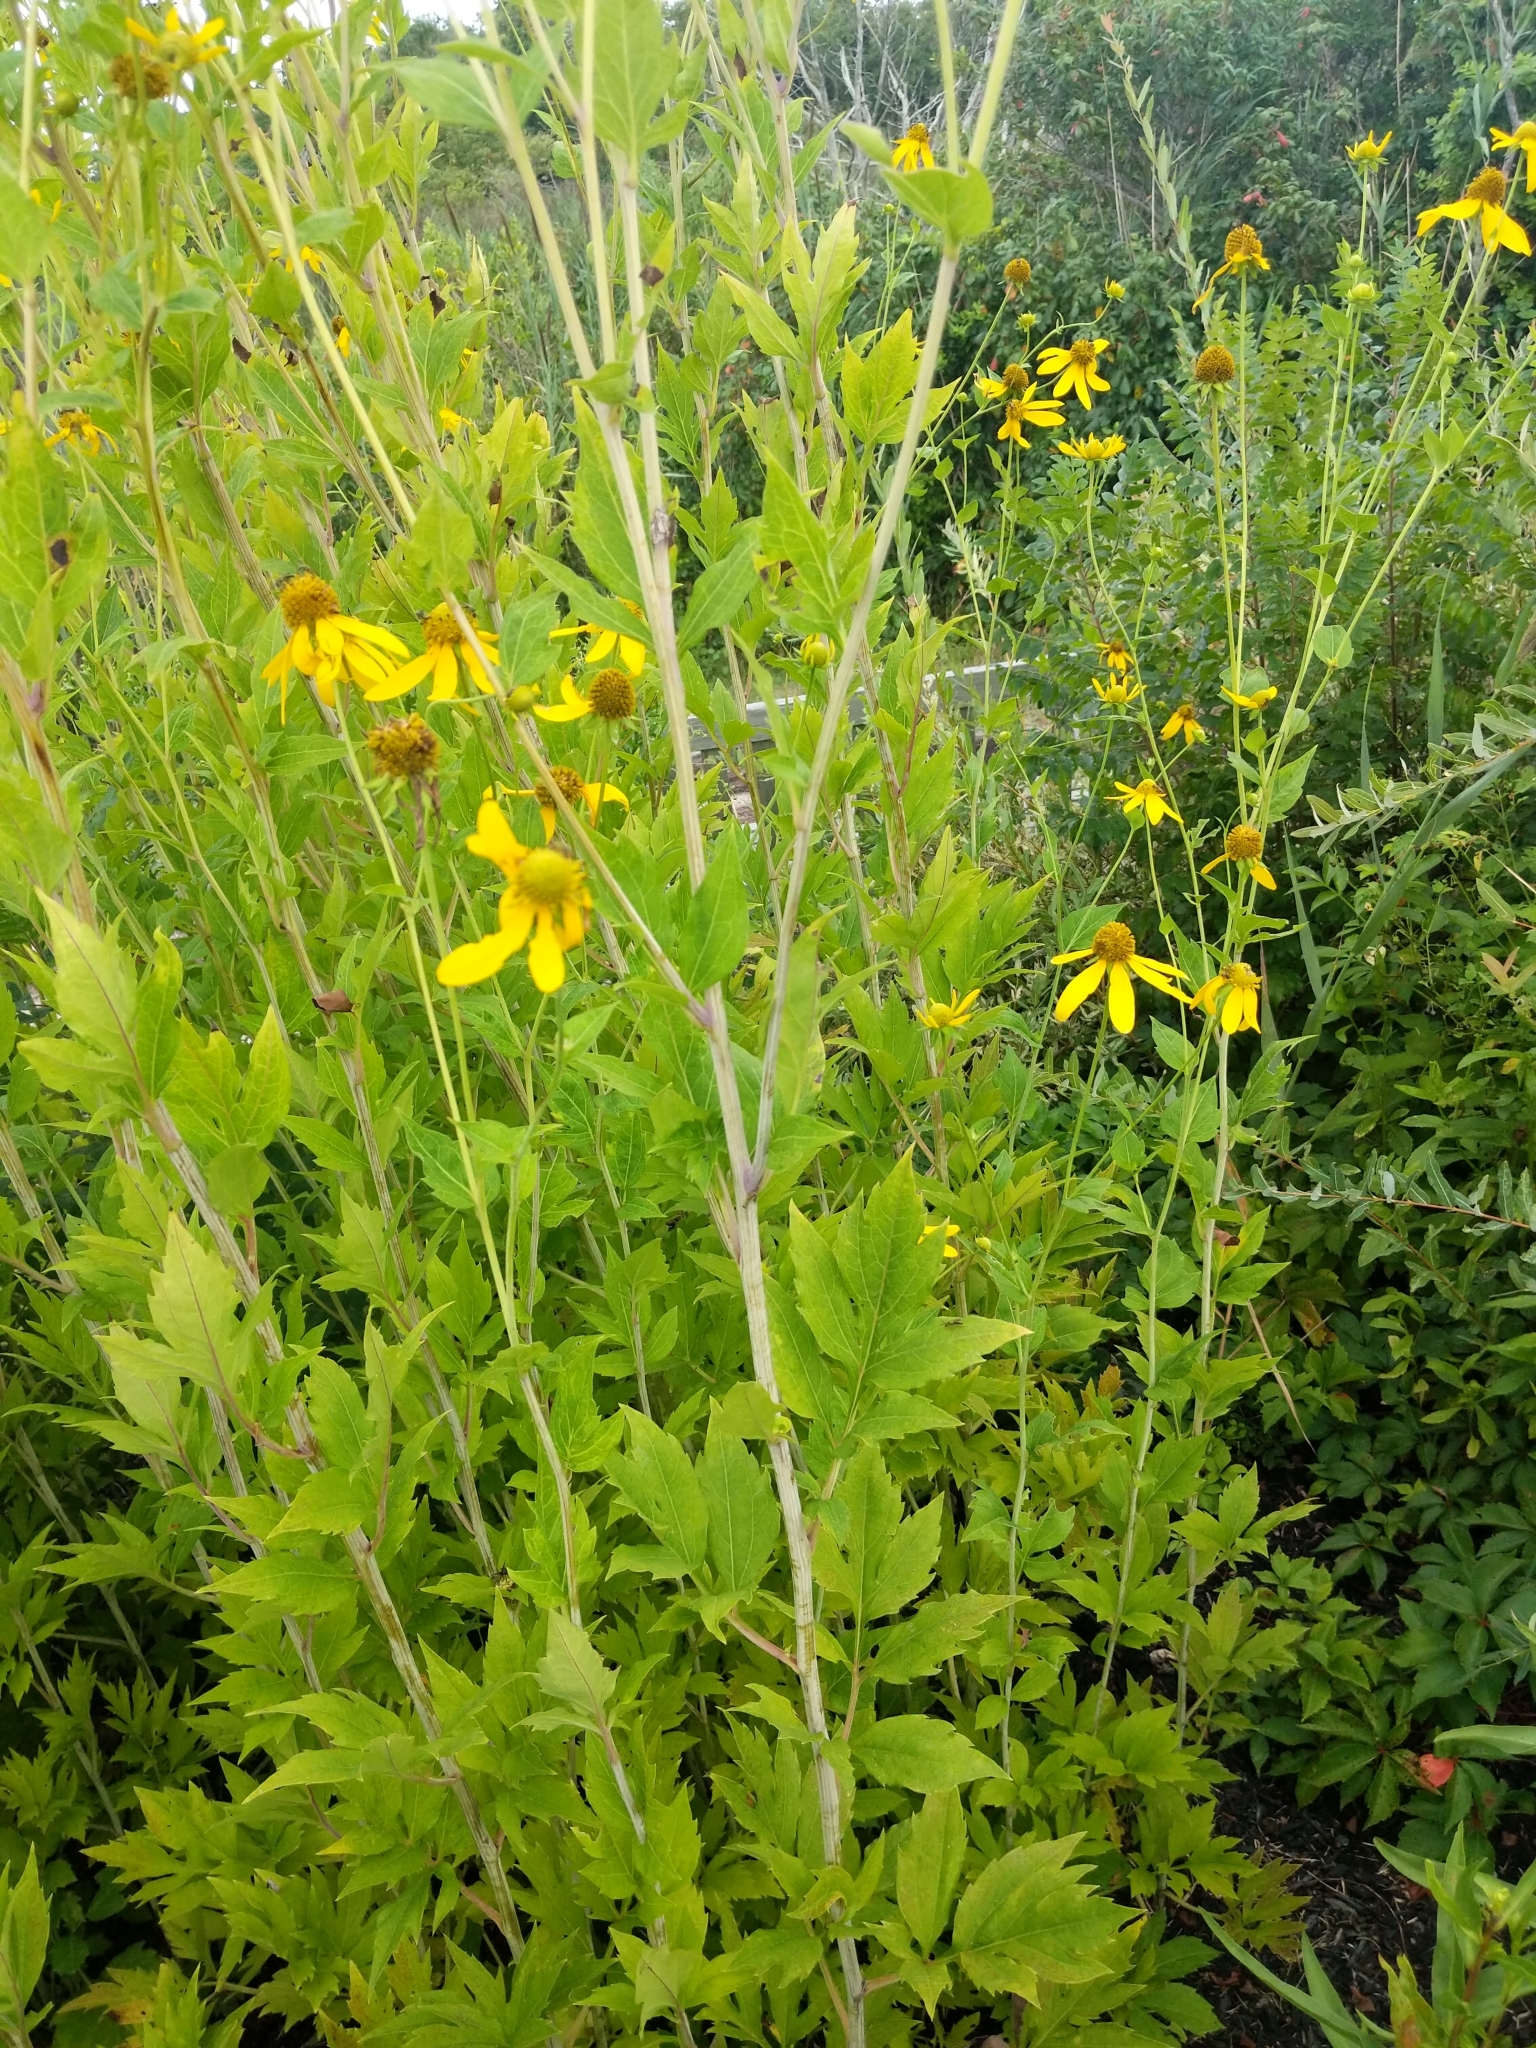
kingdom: Plantae
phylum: Tracheophyta
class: Magnoliopsida
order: Asterales
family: Asteraceae
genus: Rudbeckia
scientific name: Rudbeckia laciniata
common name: Coneflower
